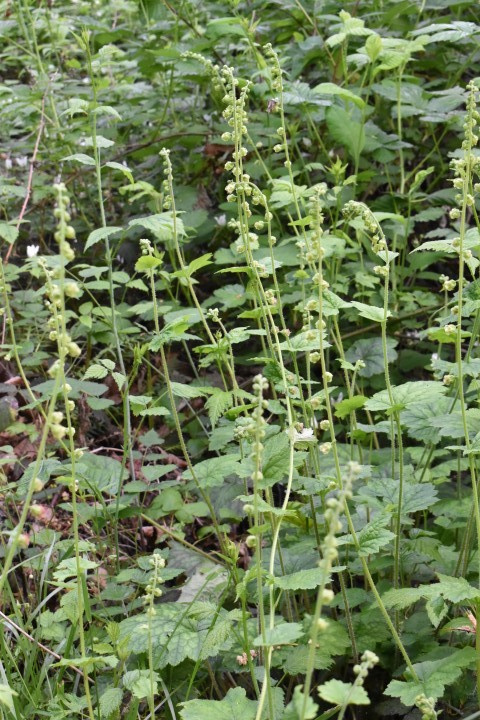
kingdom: Plantae
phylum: Tracheophyta
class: Magnoliopsida
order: Saxifragales
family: Saxifragaceae
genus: Tellima
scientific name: Tellima grandiflora
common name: Fringecups
